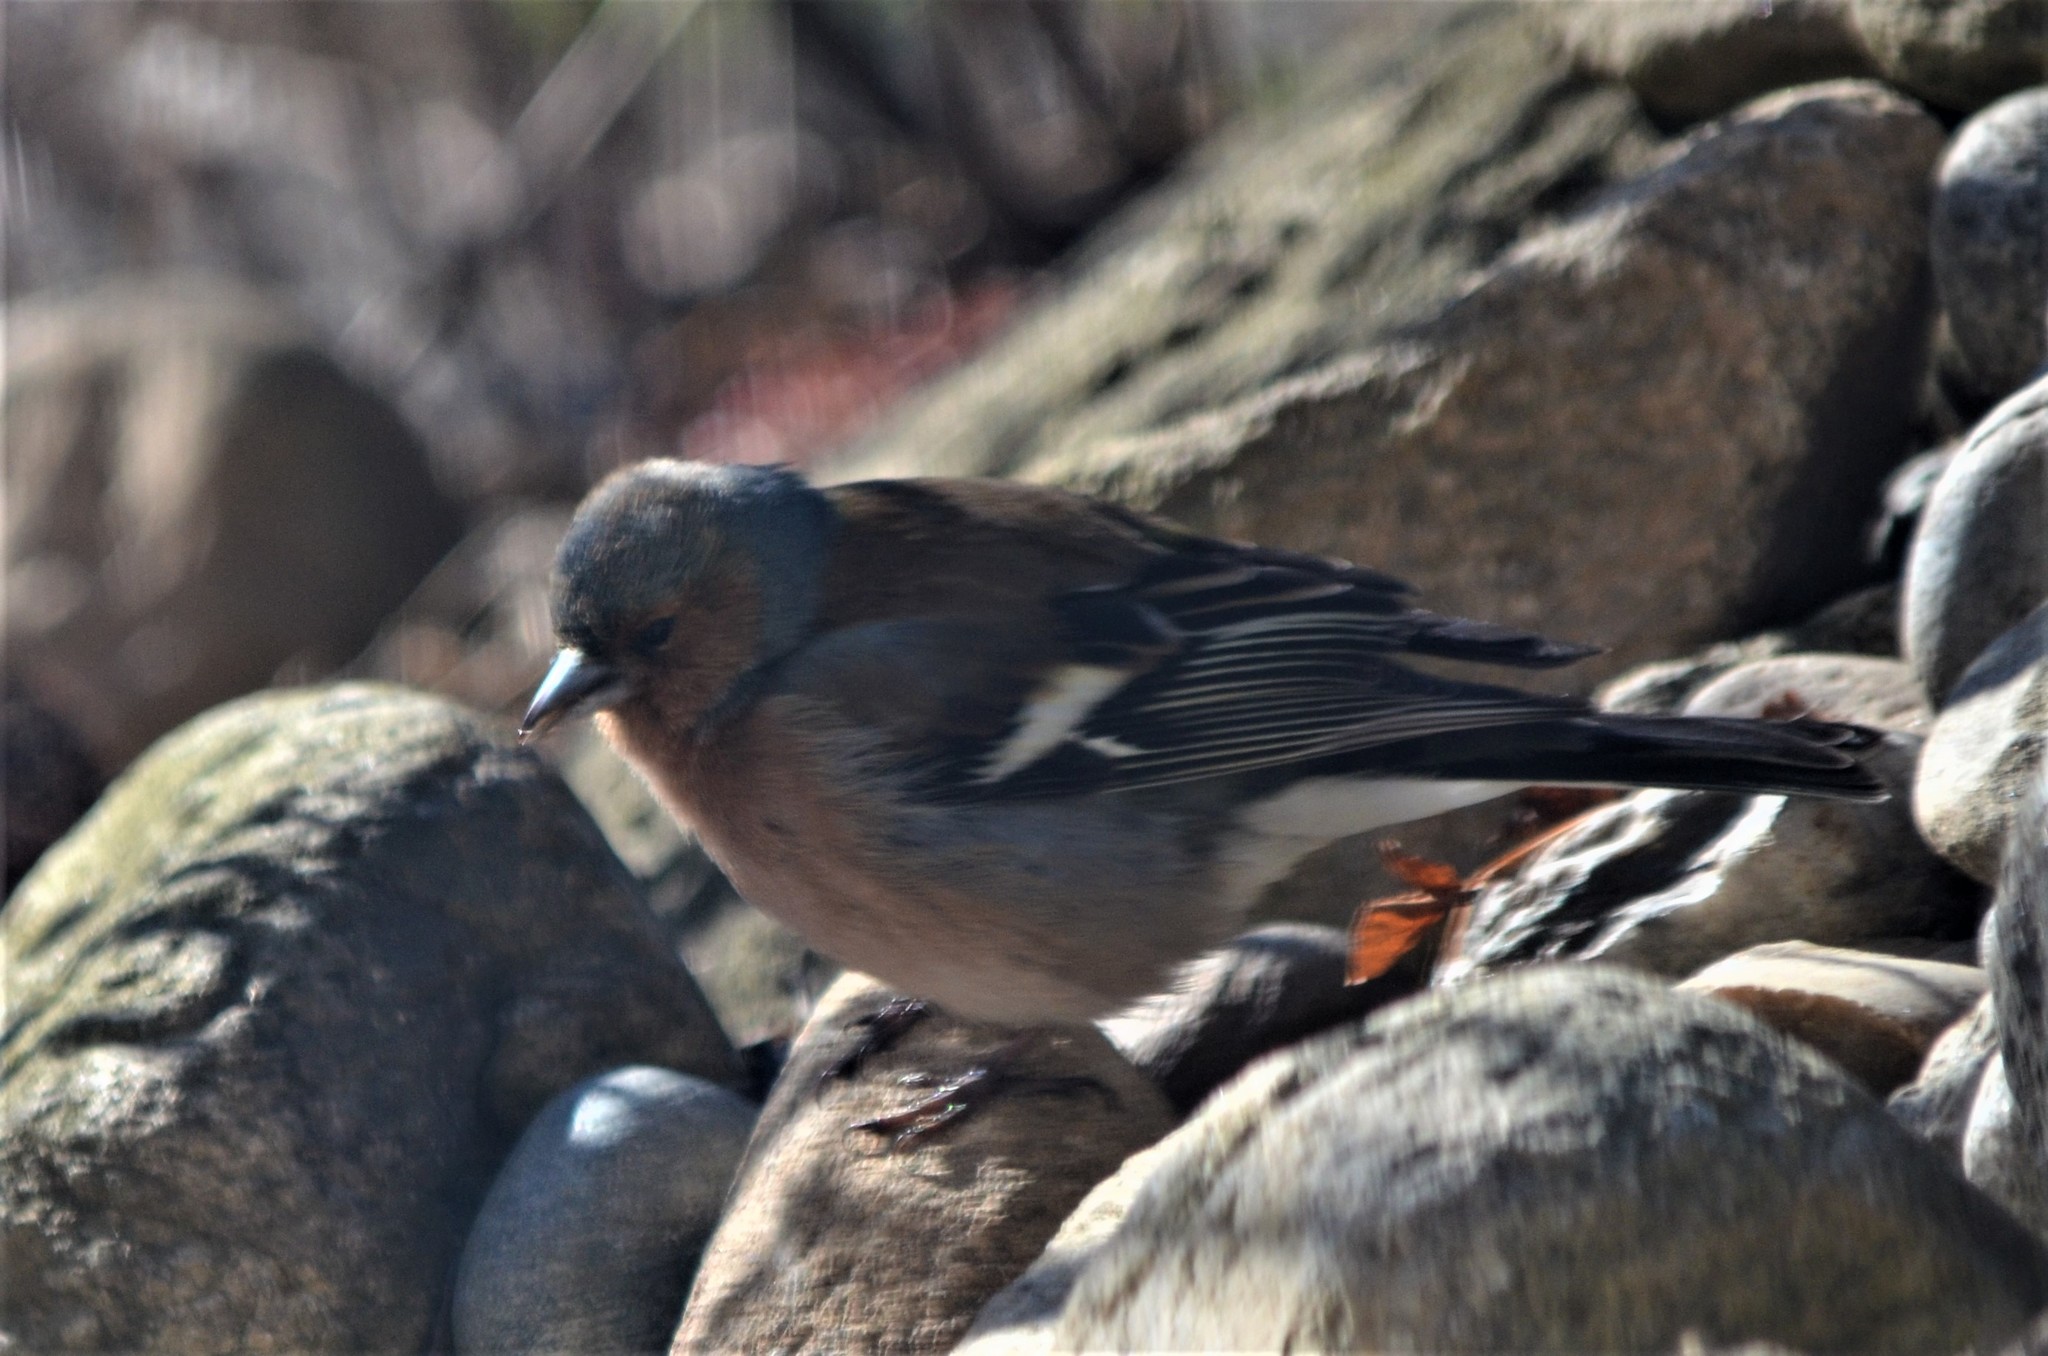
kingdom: Animalia
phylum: Chordata
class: Aves
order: Passeriformes
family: Fringillidae
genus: Fringilla
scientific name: Fringilla coelebs
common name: Common chaffinch
